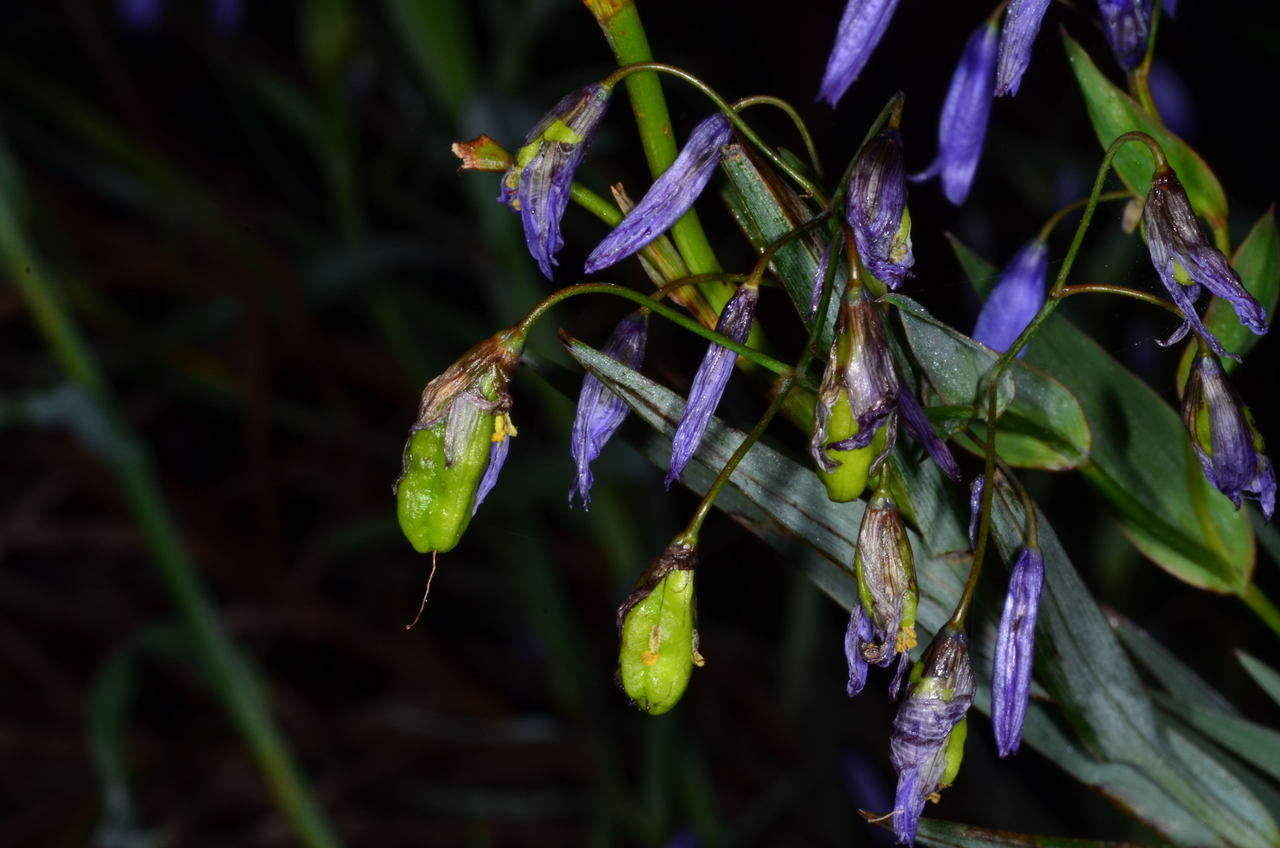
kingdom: Plantae
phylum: Tracheophyta
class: Liliopsida
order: Asparagales
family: Asphodelaceae
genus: Stypandra
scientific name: Stypandra glauca
